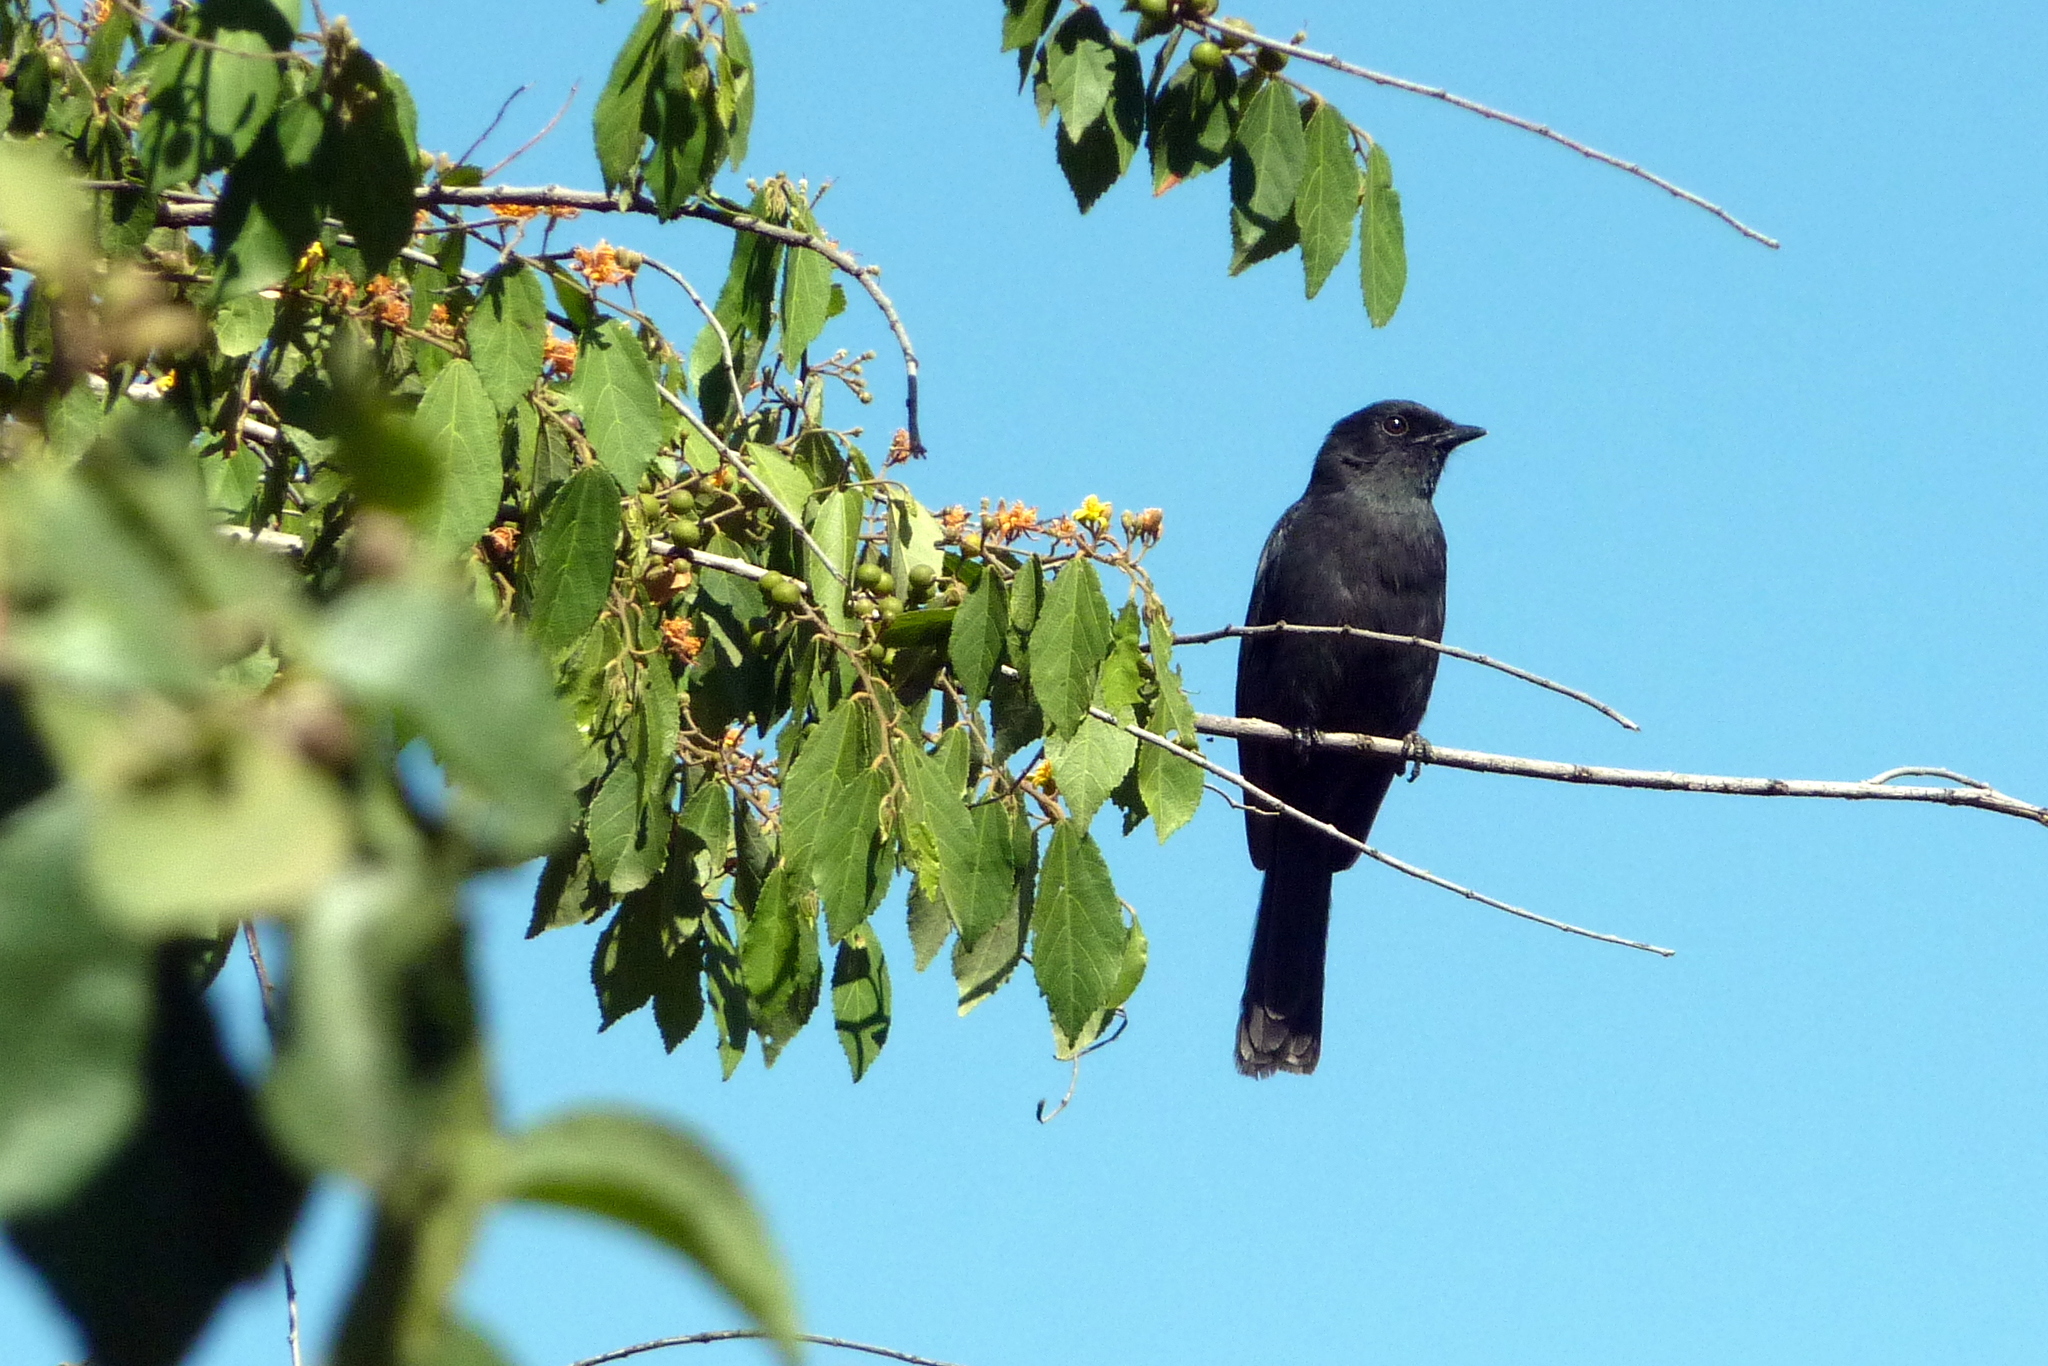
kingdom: Animalia
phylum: Chordata
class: Aves
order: Passeriformes
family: Muscicapidae
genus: Melaenornis
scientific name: Melaenornis edolioides
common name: Northern black flycatcher
